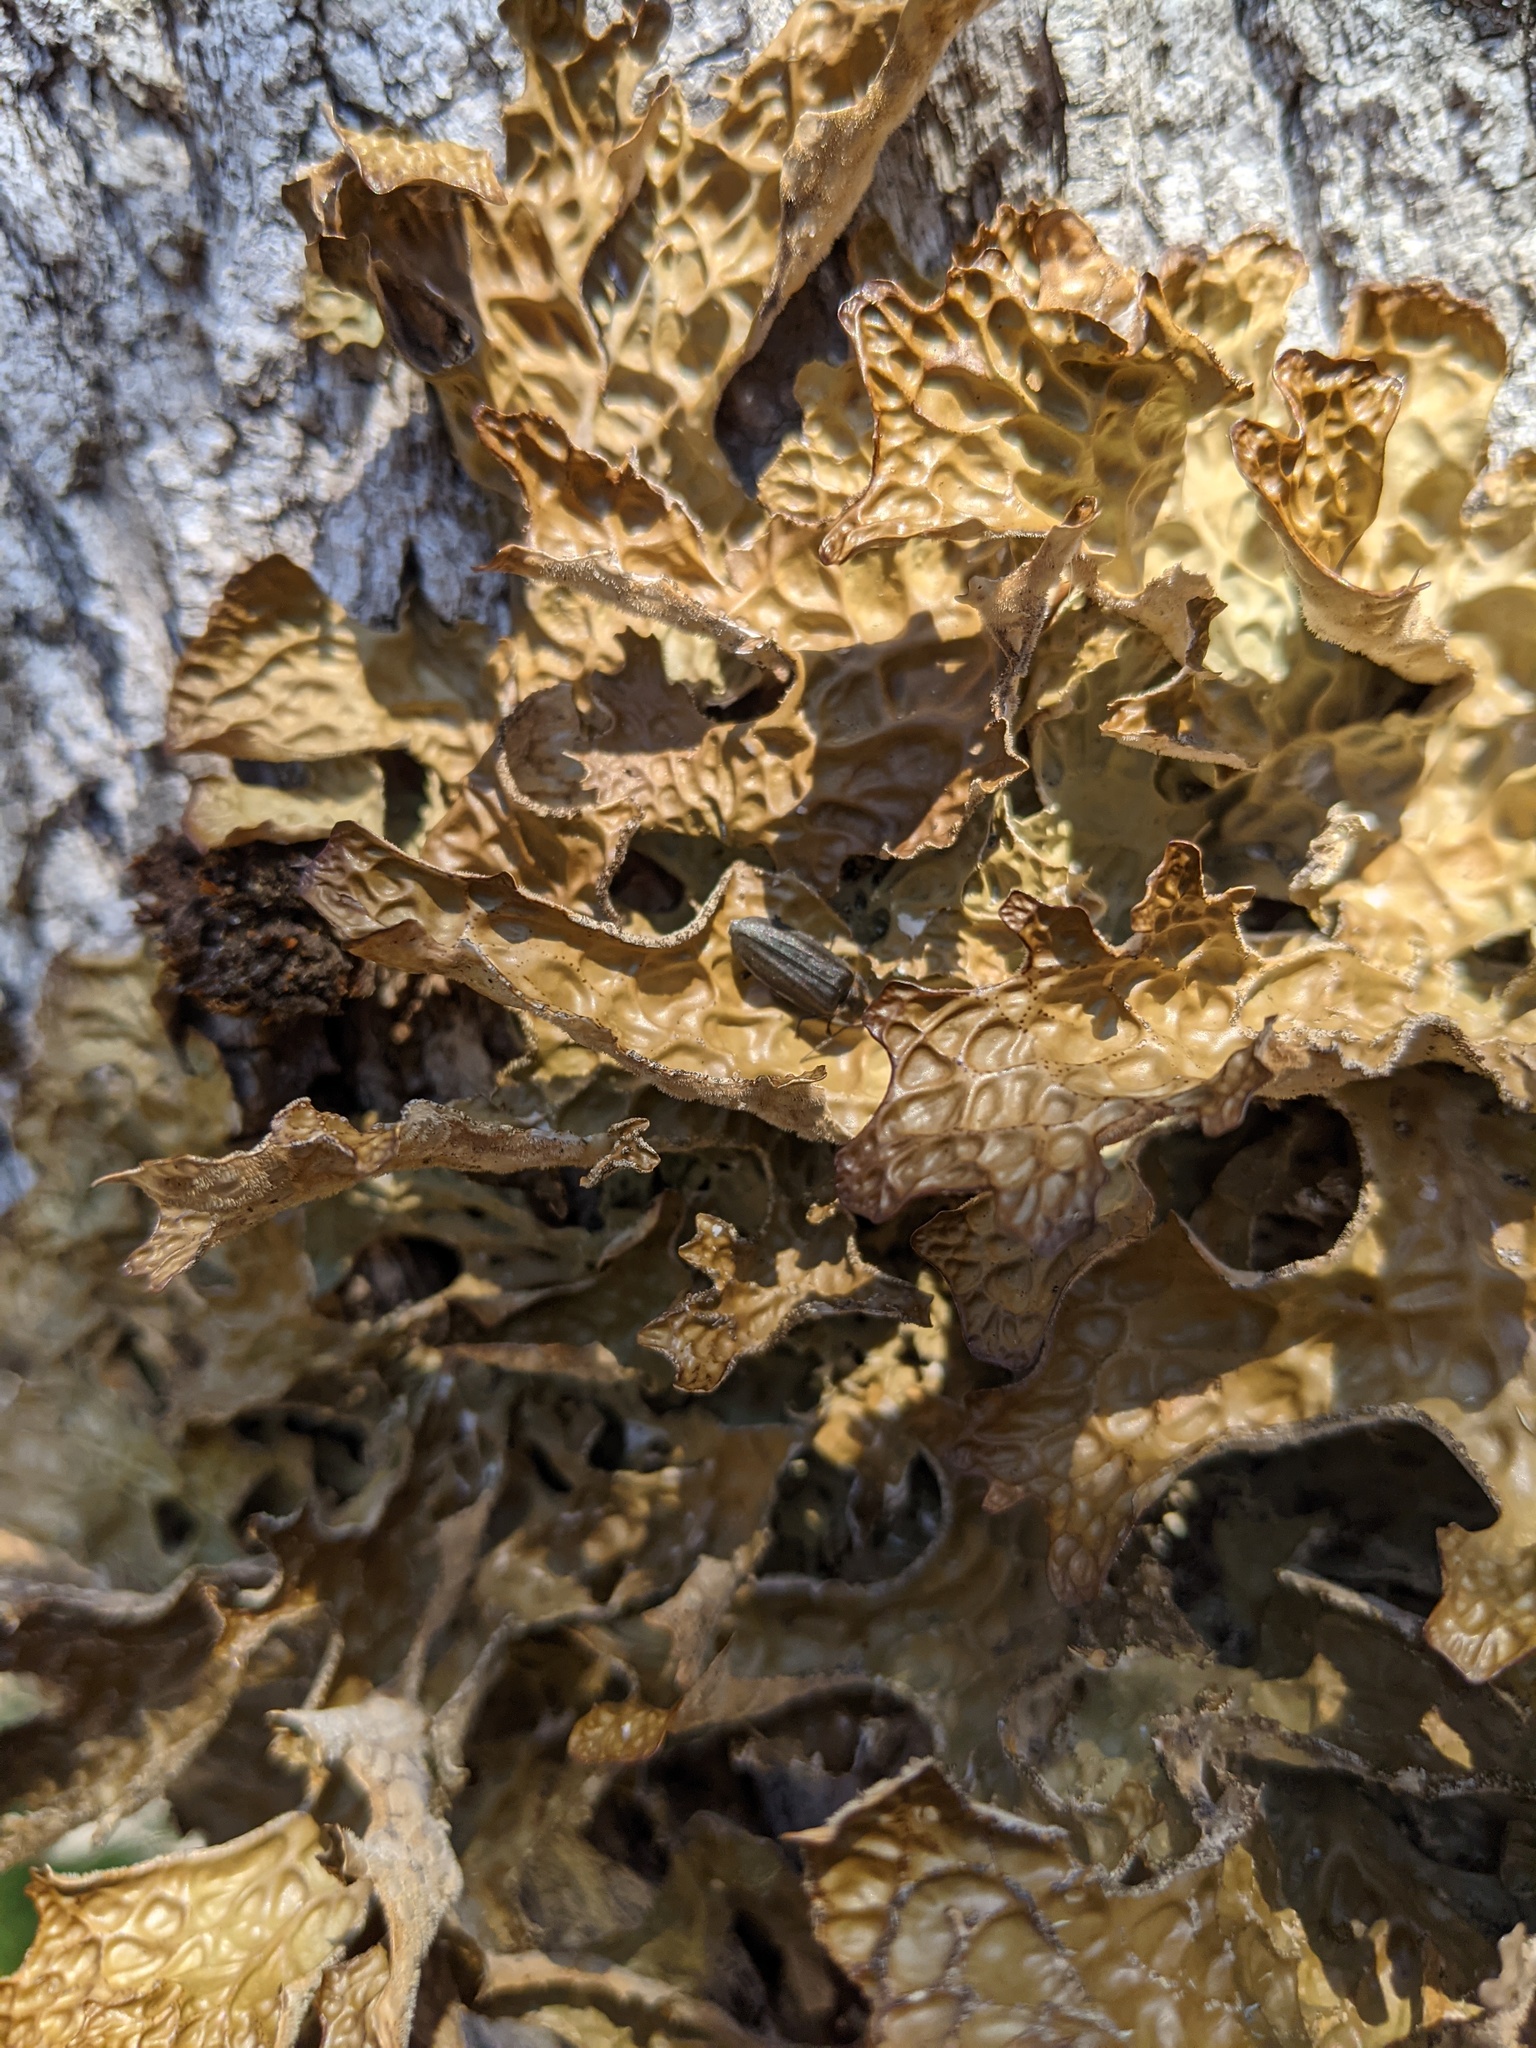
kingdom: Fungi
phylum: Ascomycota
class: Lecanoromycetes
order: Peltigerales
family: Lobariaceae
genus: Lobaria
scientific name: Lobaria pulmonaria
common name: Lungwort
